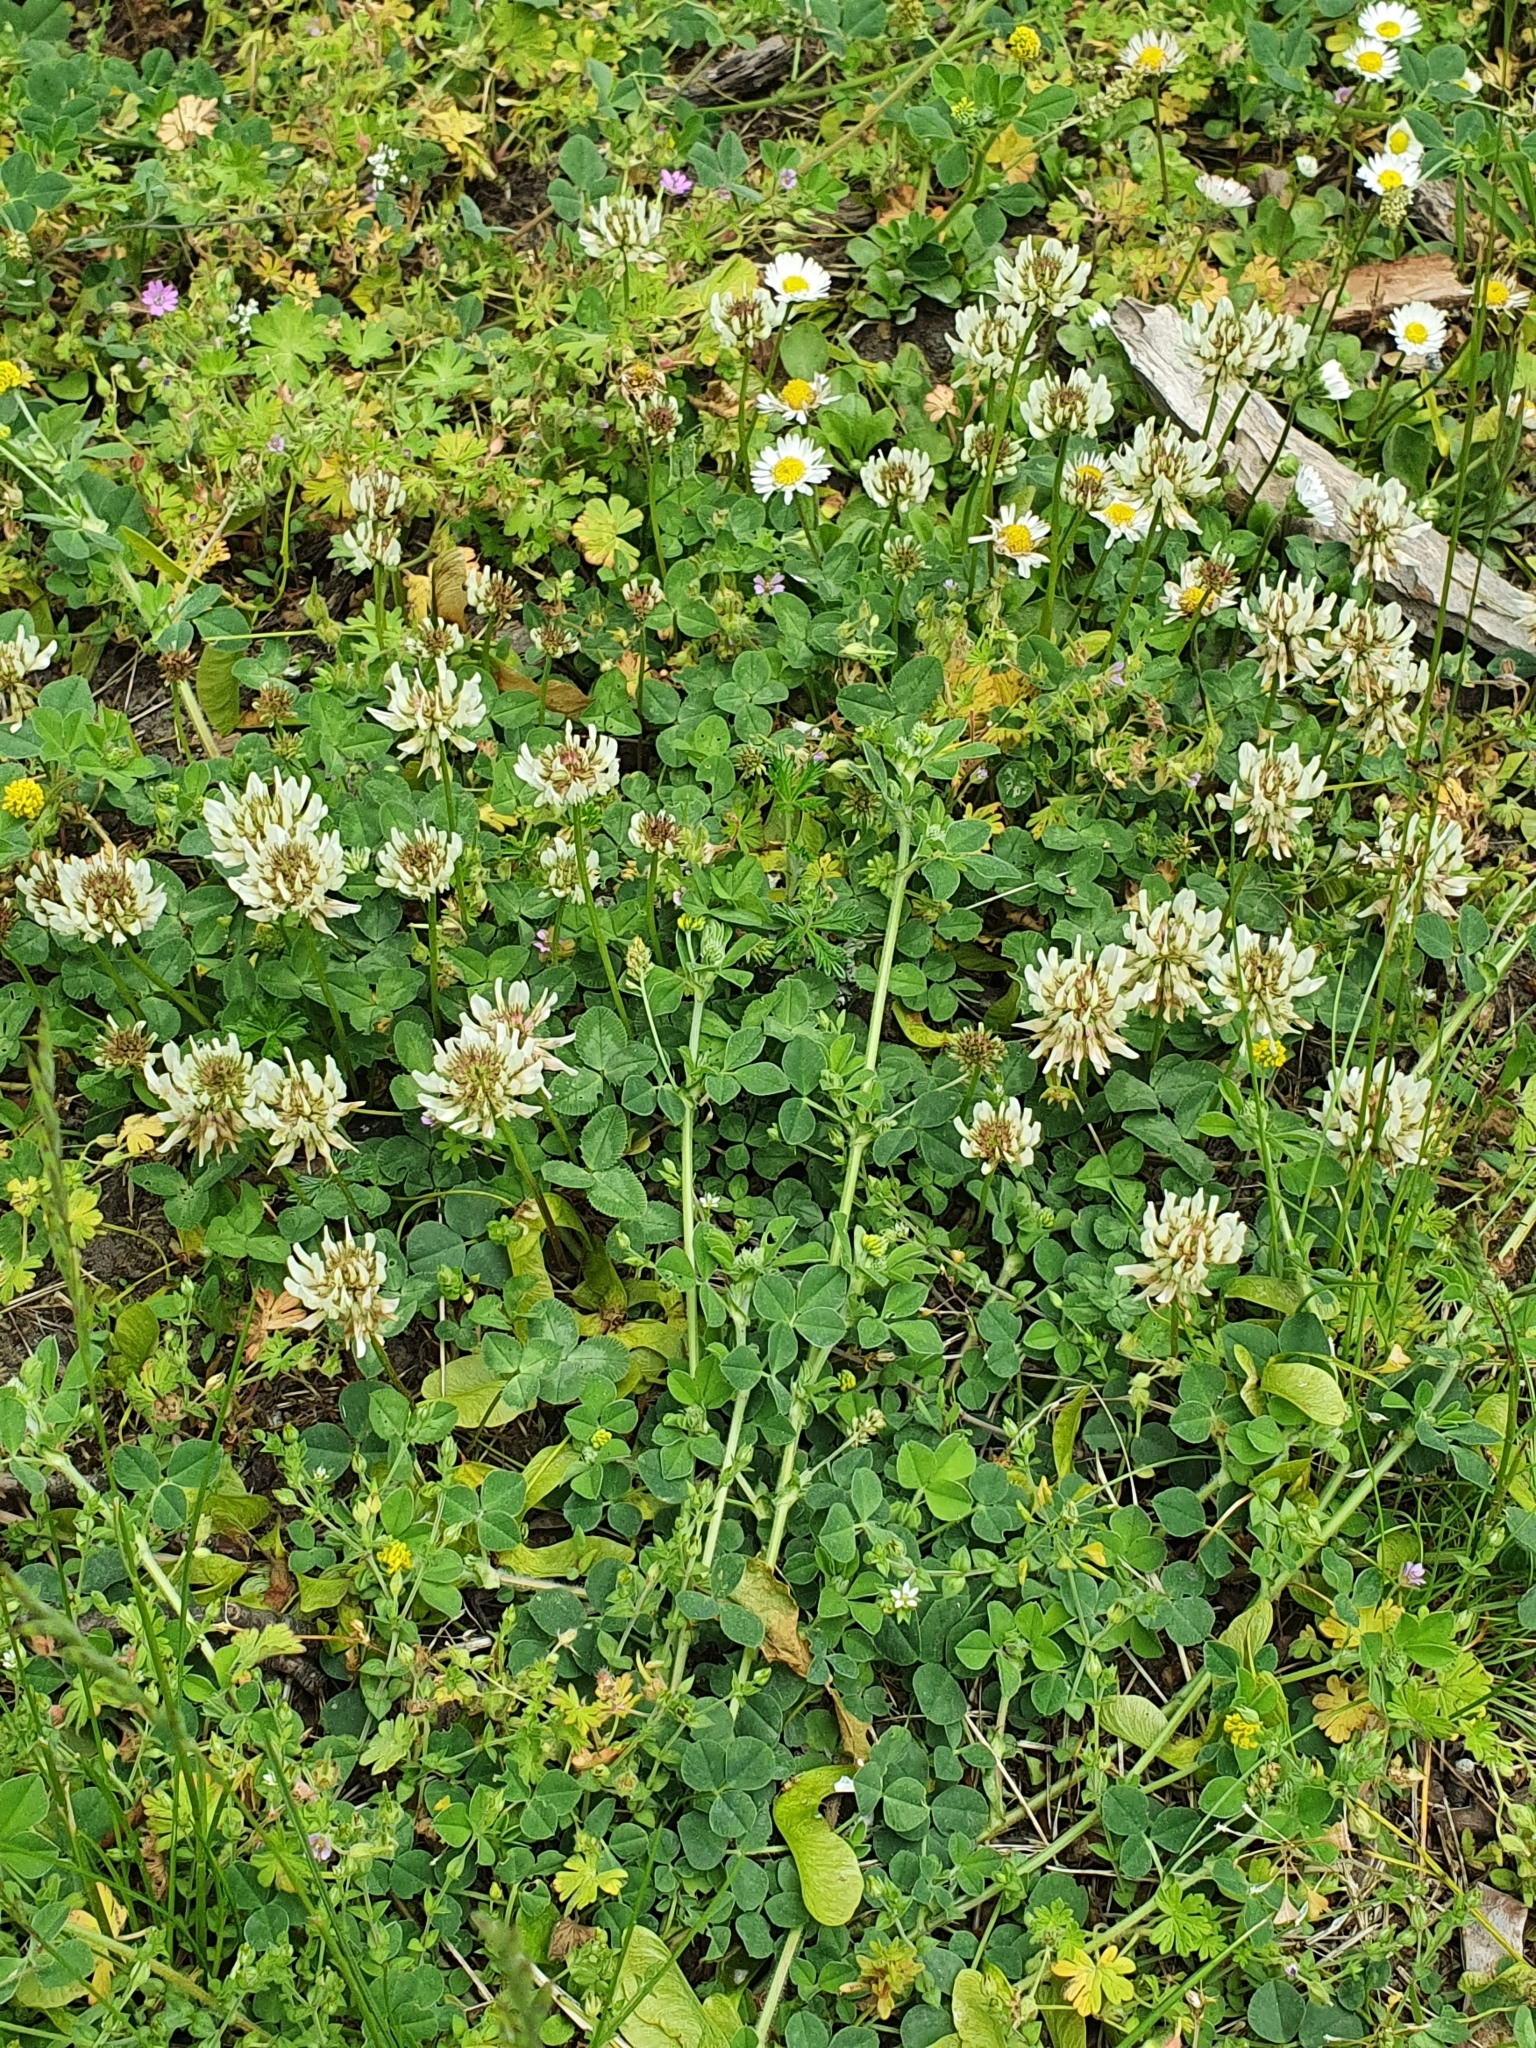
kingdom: Plantae
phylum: Tracheophyta
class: Magnoliopsida
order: Fabales
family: Fabaceae
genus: Trifolium
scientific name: Trifolium repens
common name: White clover
